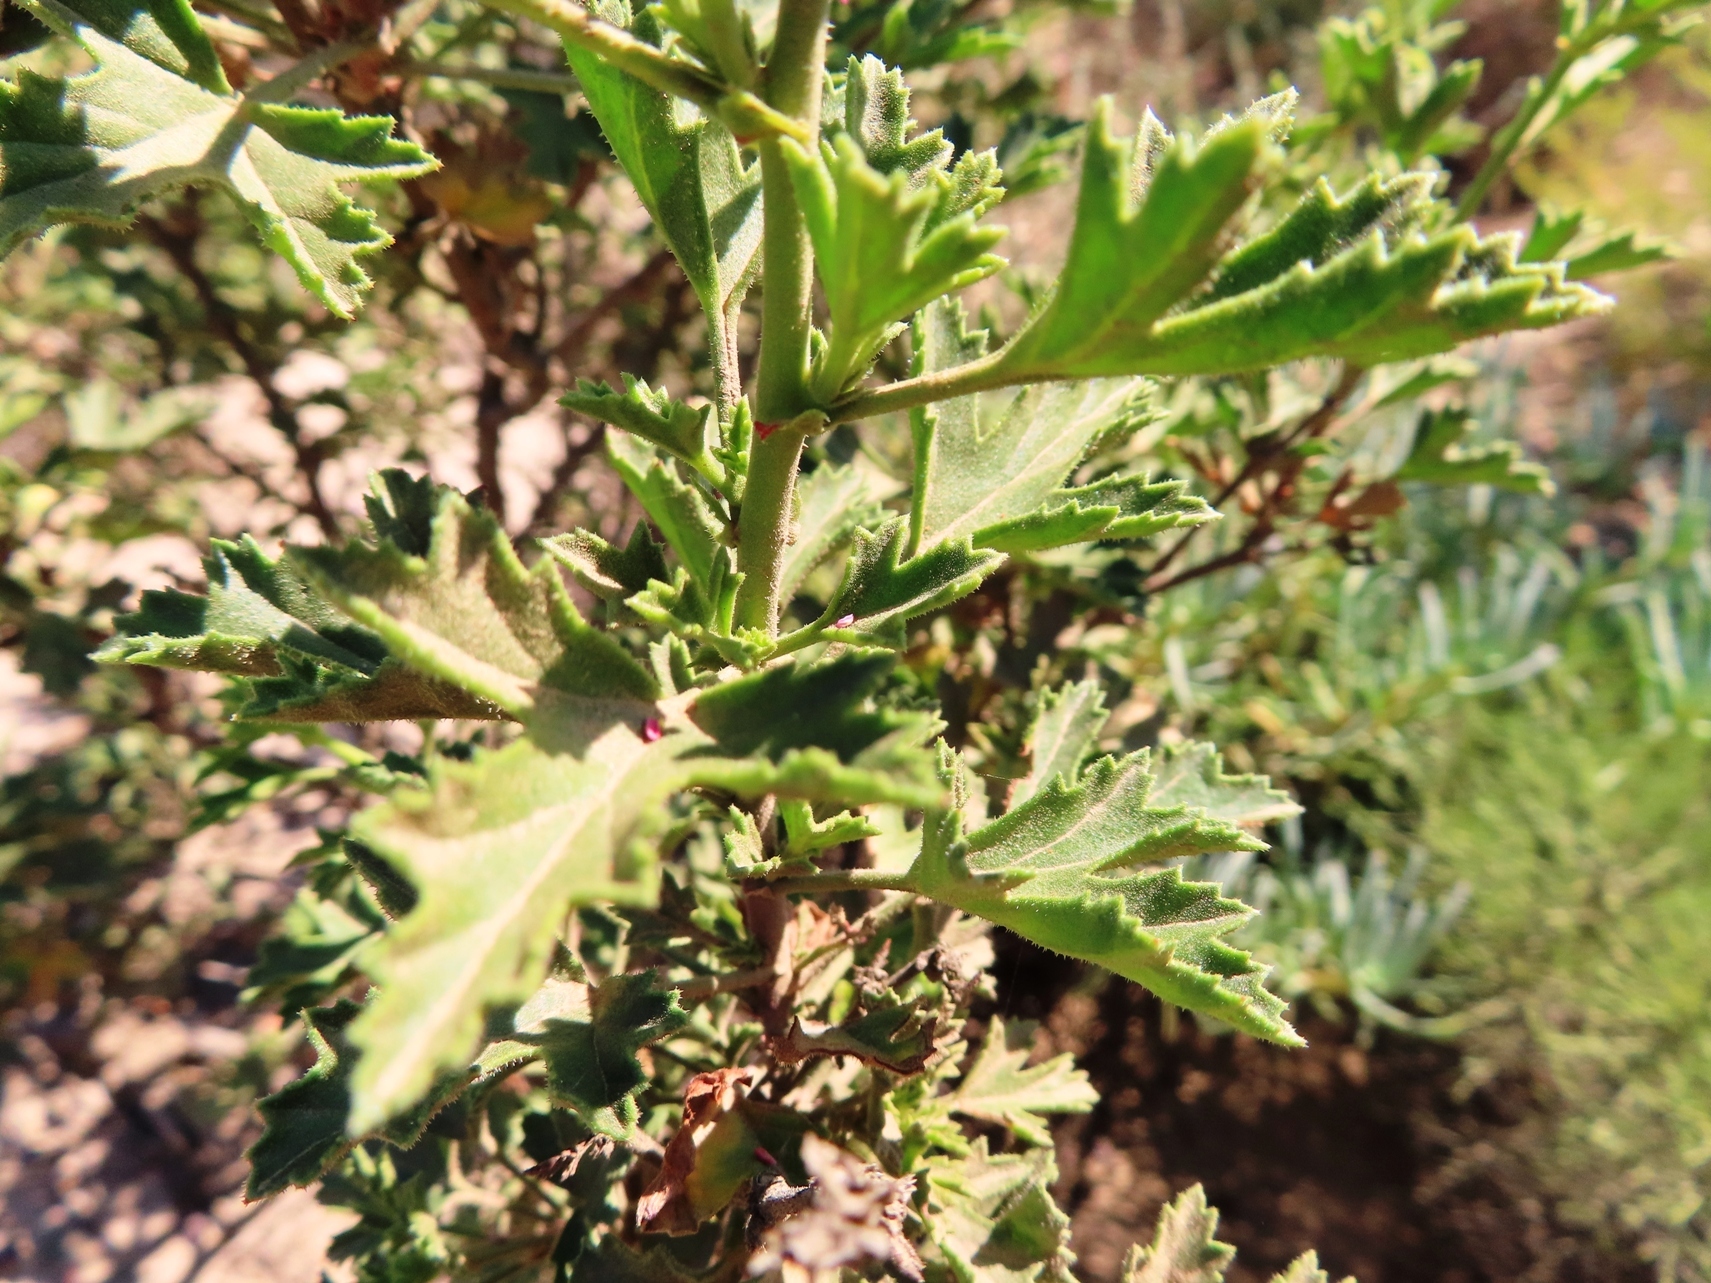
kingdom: Plantae
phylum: Tracheophyta
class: Magnoliopsida
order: Geraniales
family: Geraniaceae
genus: Pelargonium
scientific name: Pelargonium scabrum
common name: Apricot geranium
